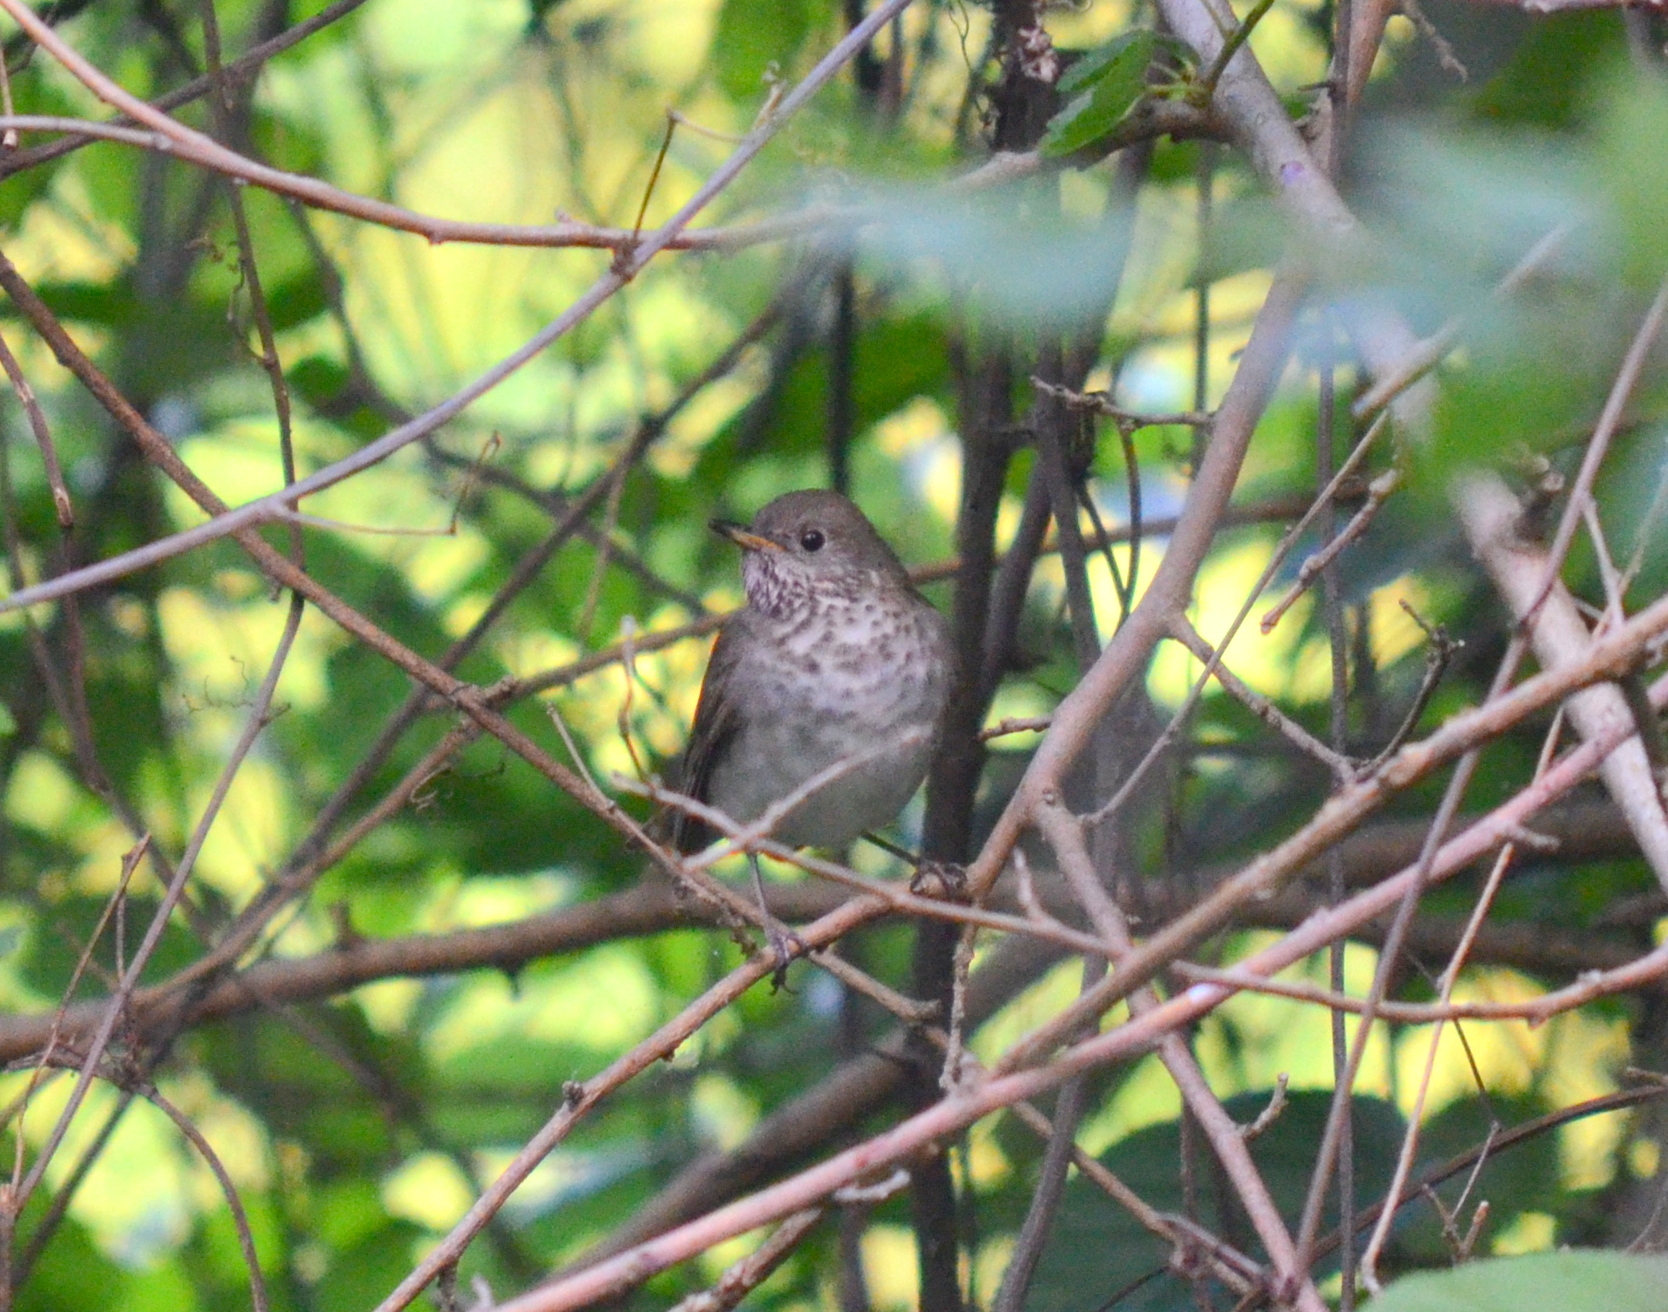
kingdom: Animalia
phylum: Chordata
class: Aves
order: Passeriformes
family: Turdidae
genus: Catharus
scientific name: Catharus minimus
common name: Grey-cheeked thrush
